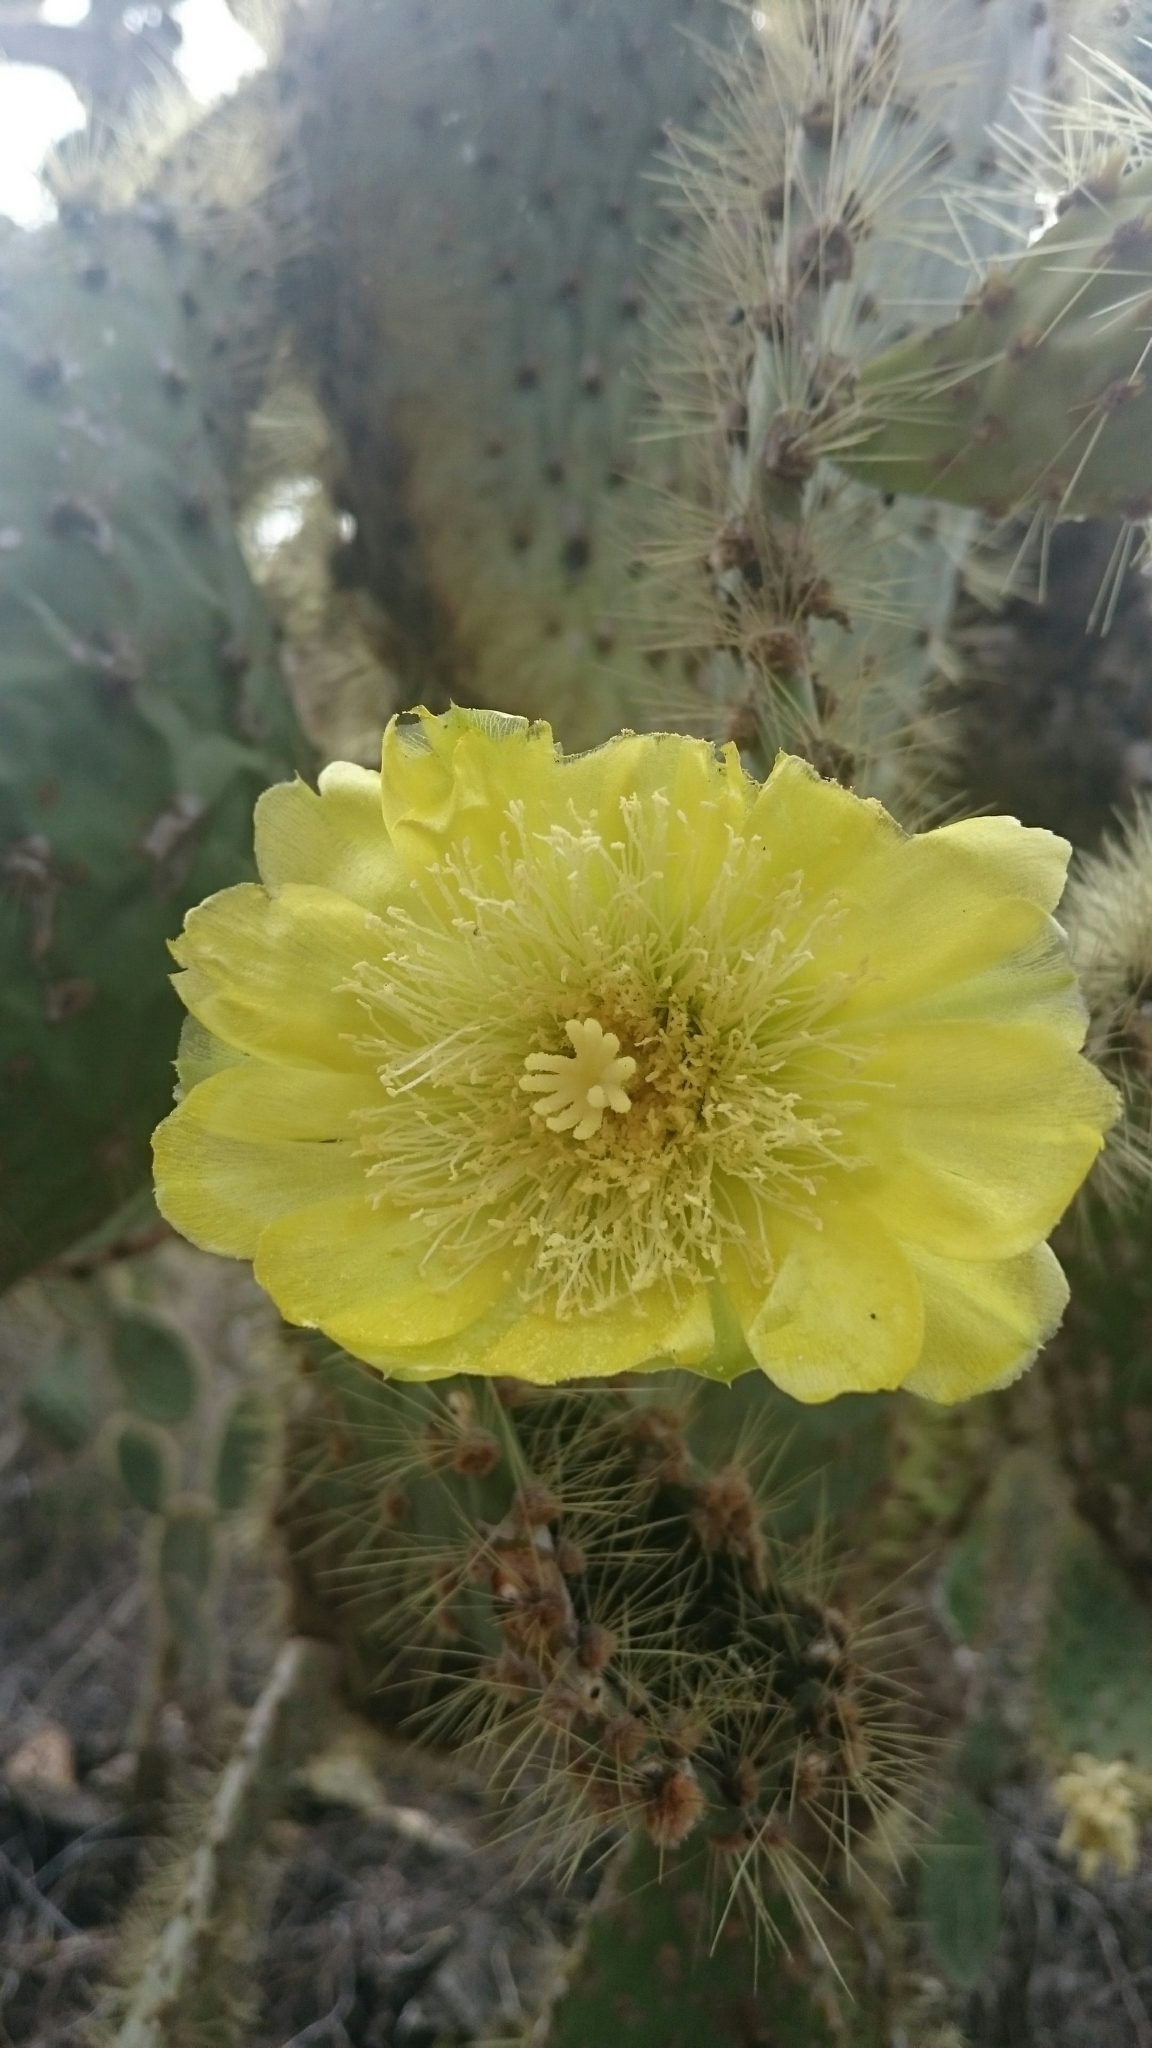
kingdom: Plantae
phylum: Tracheophyta
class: Magnoliopsida
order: Caryophyllales
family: Cactaceae
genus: Opuntia
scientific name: Opuntia galapageia
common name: Galápagos prickly pear
